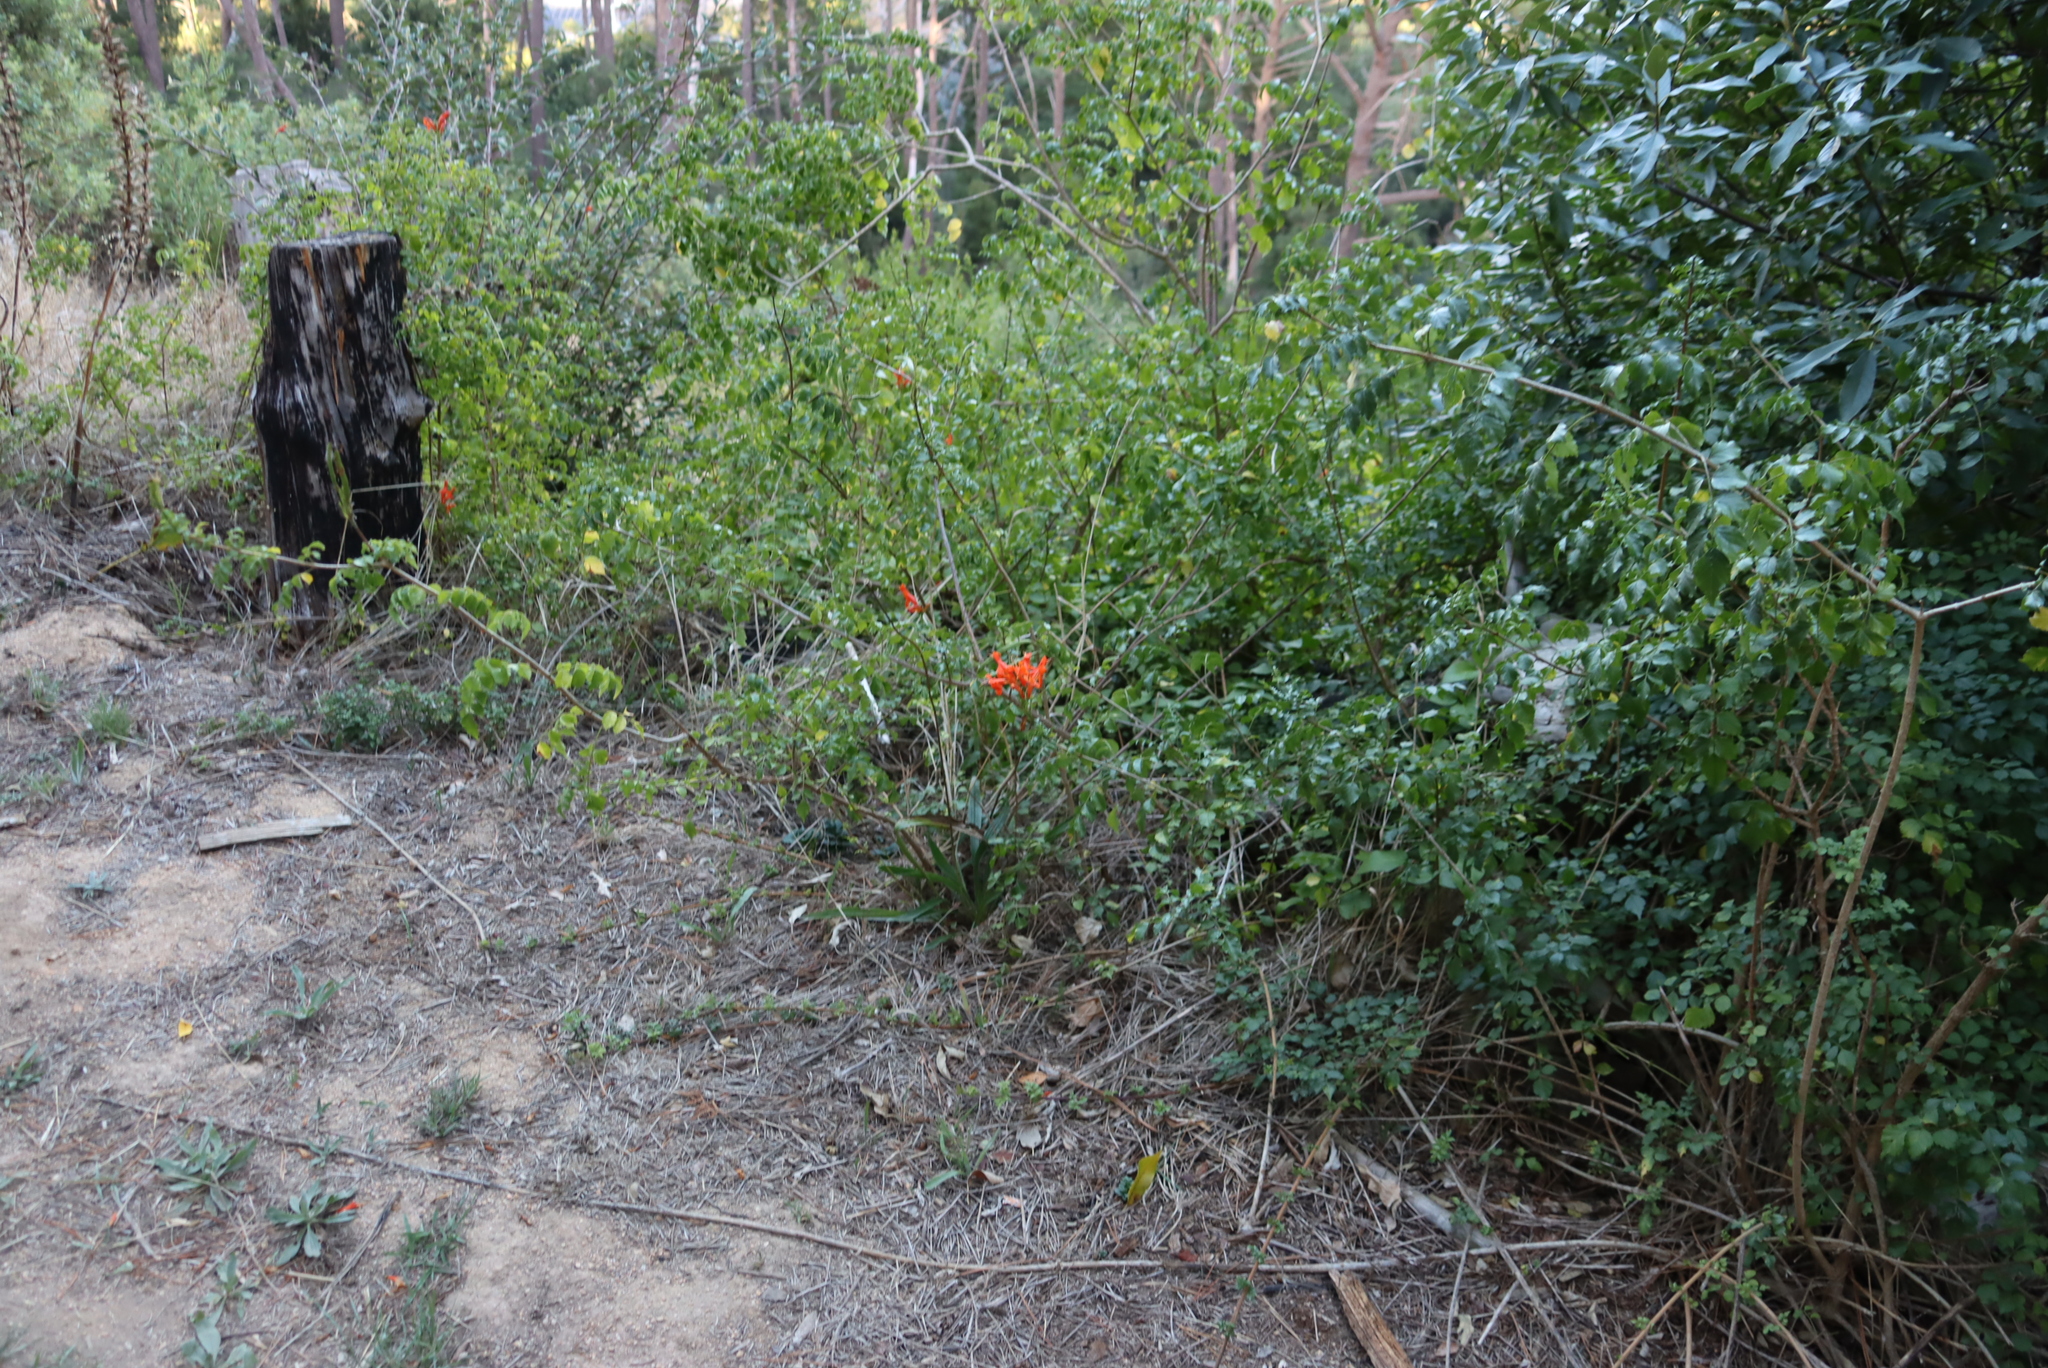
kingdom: Plantae
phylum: Tracheophyta
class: Magnoliopsida
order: Lamiales
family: Bignoniaceae
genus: Tecomaria
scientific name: Tecomaria capensis
